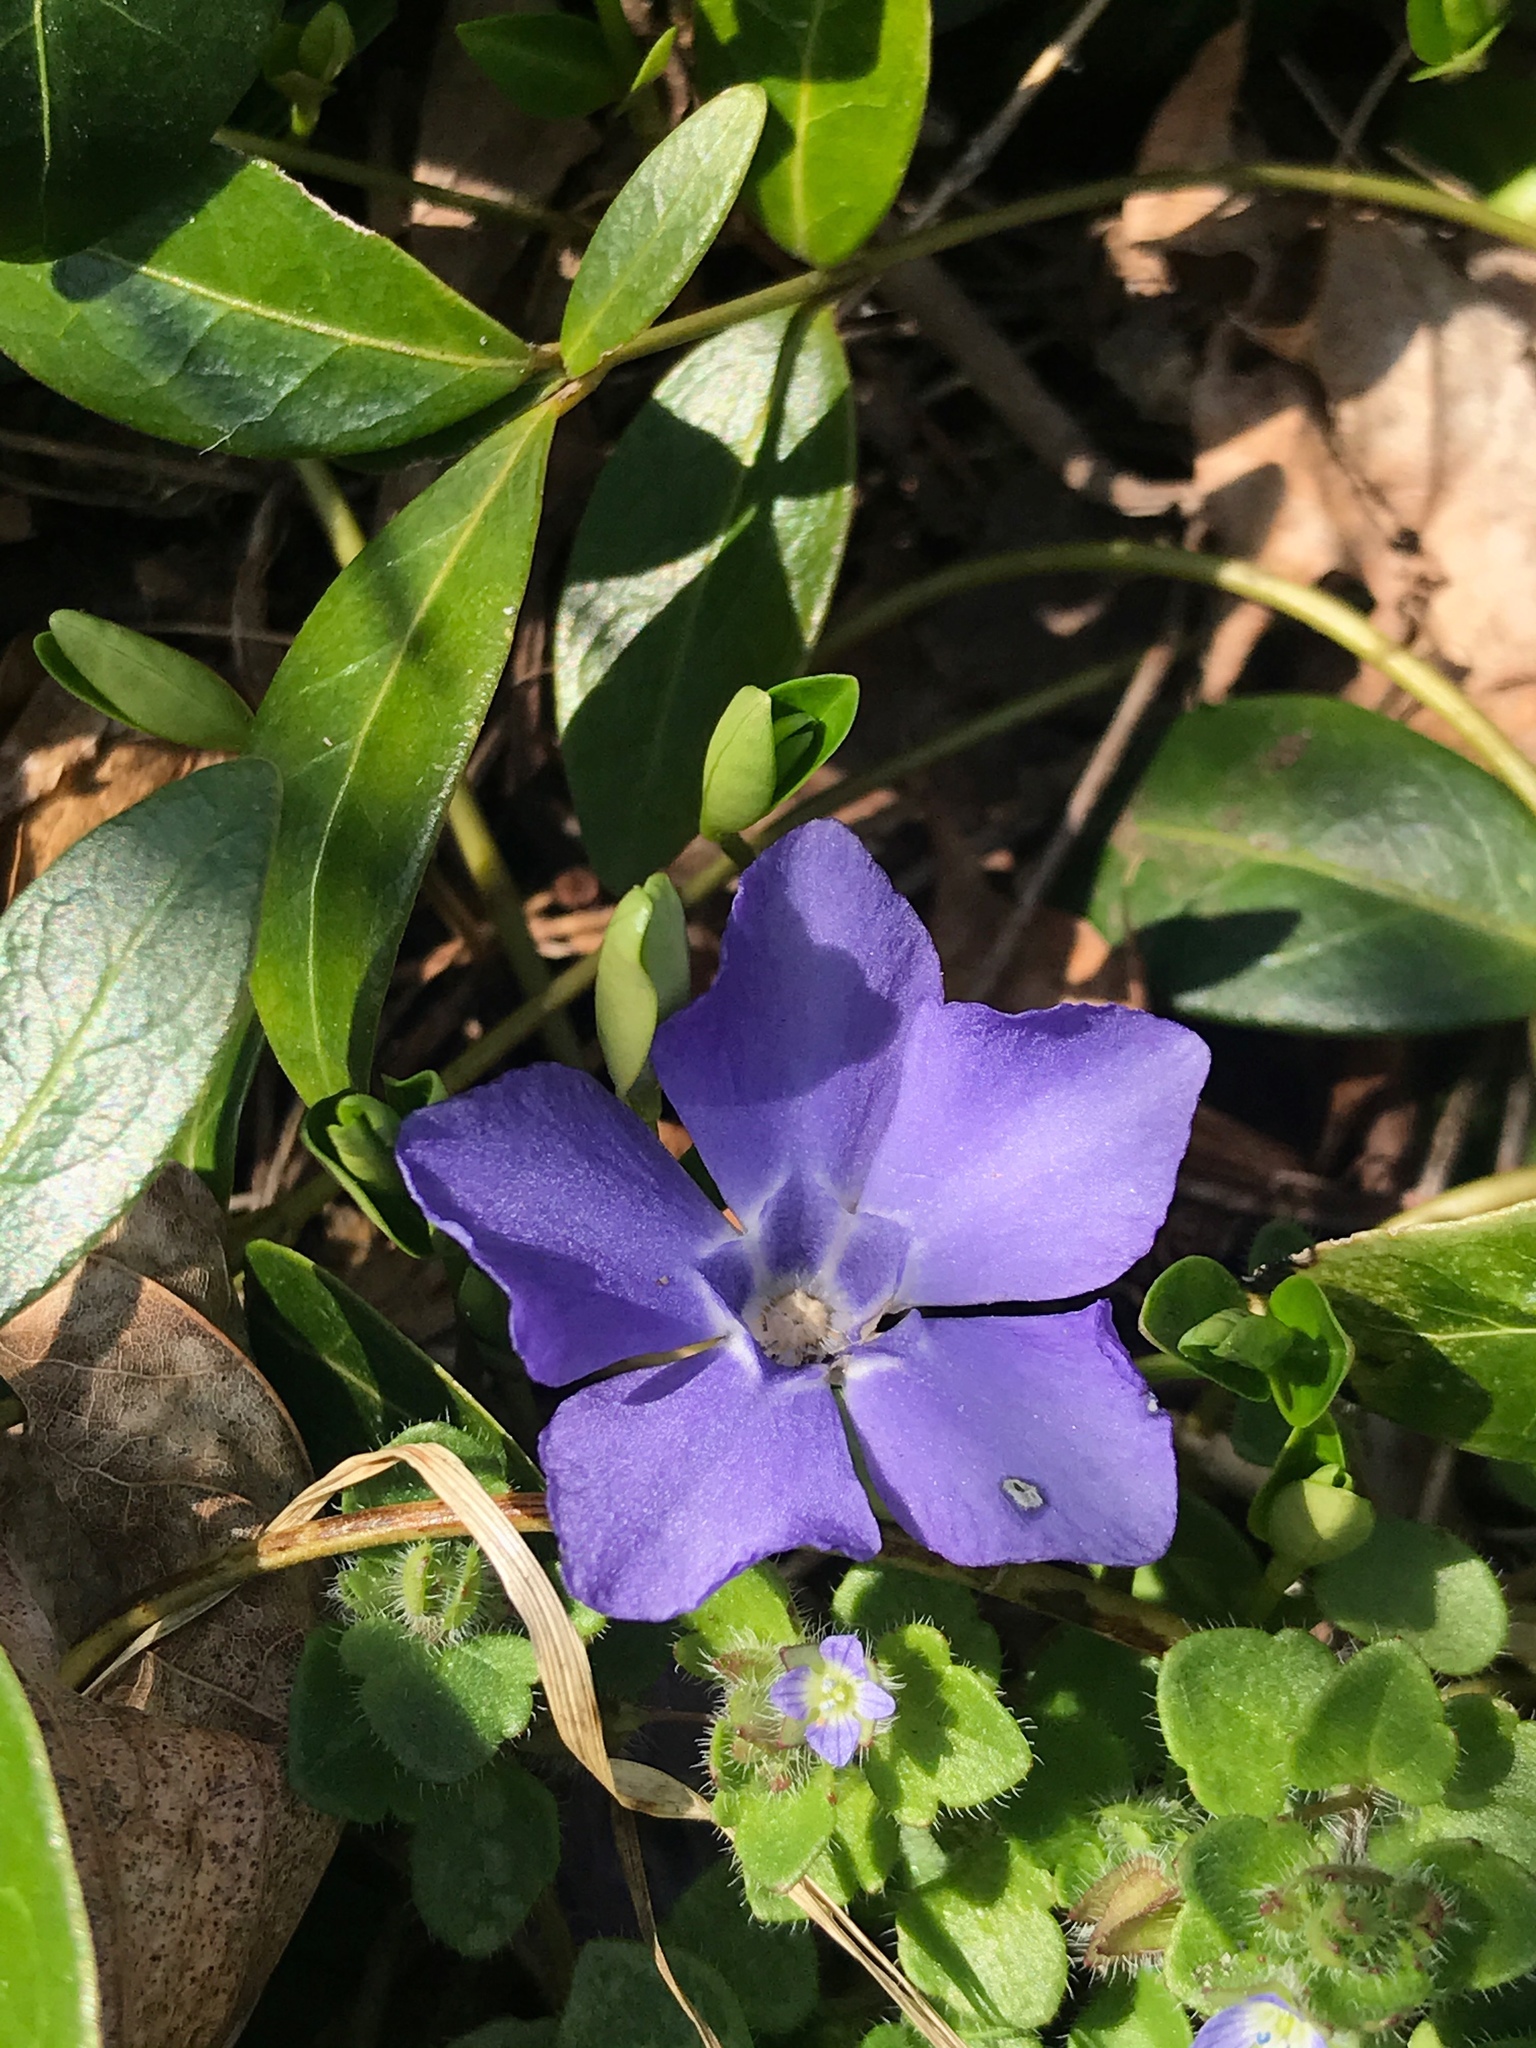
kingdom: Plantae
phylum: Tracheophyta
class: Magnoliopsida
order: Gentianales
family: Apocynaceae
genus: Vinca
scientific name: Vinca minor
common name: Lesser periwinkle
